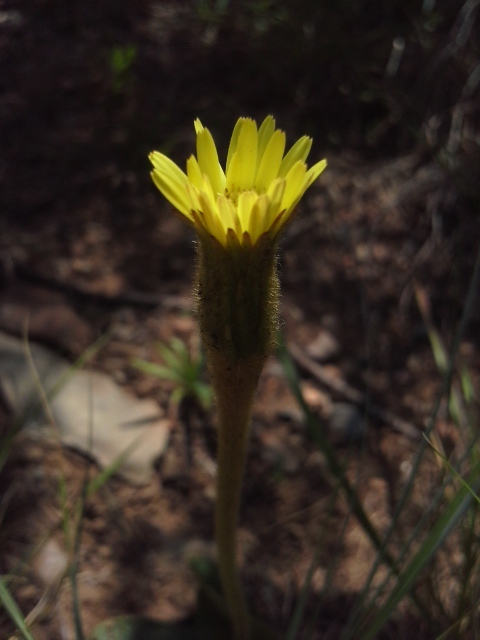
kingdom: Plantae
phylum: Tracheophyta
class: Magnoliopsida
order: Asterales
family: Asteraceae
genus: Piloselloides
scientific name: Piloselloides hirsuta
